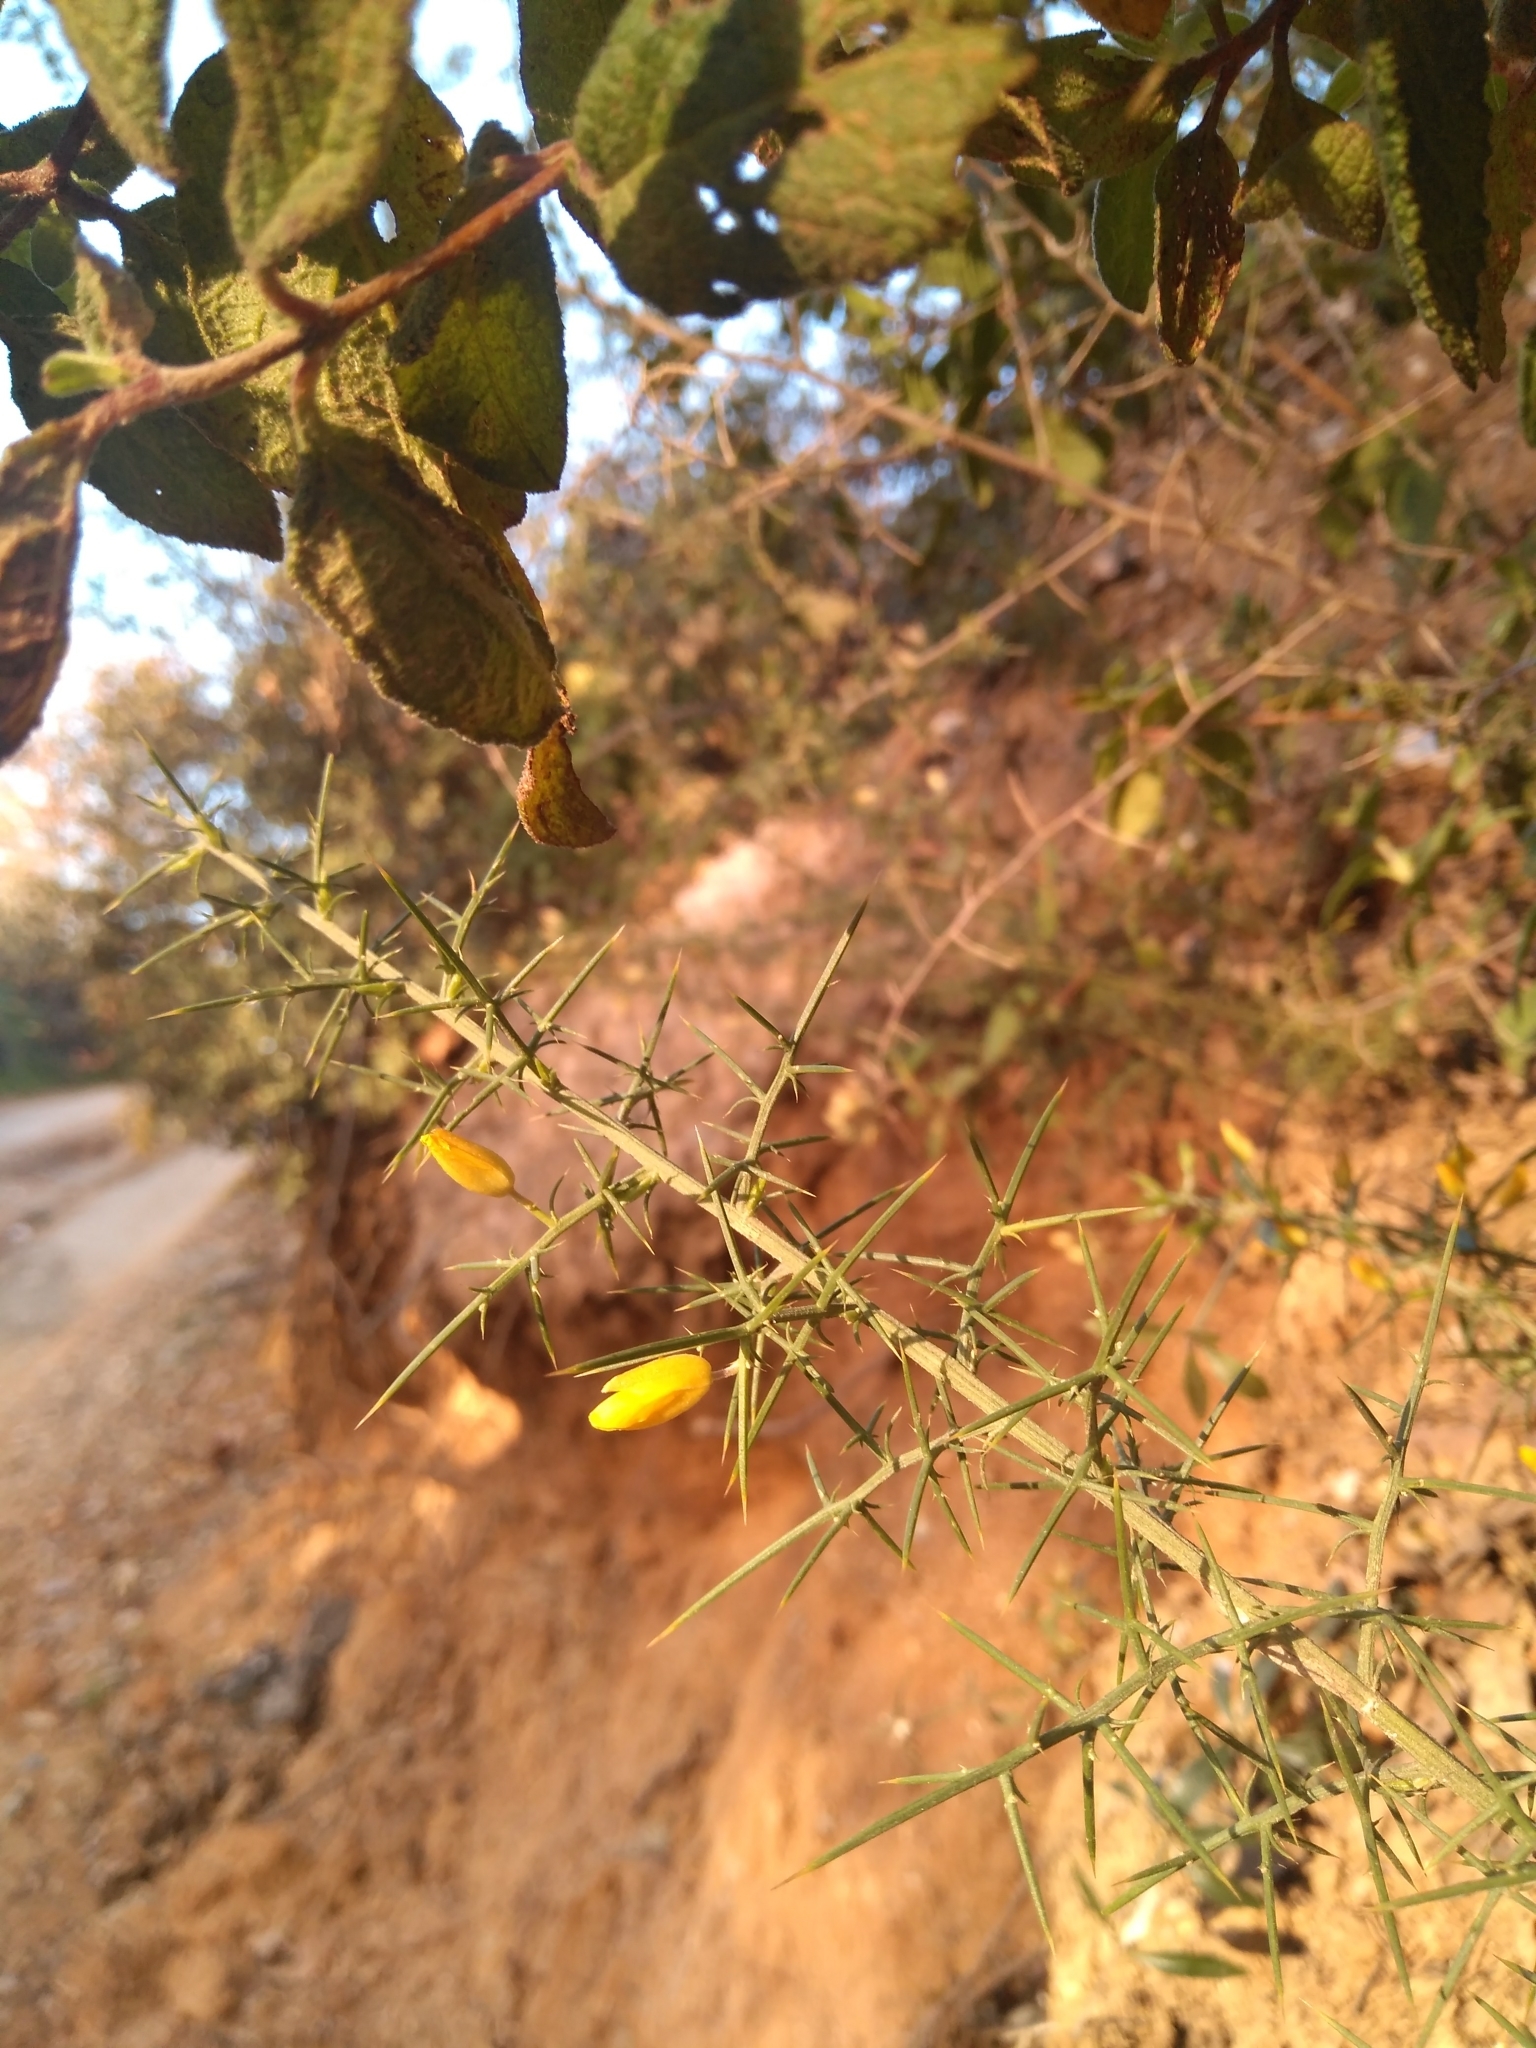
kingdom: Plantae
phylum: Tracheophyta
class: Magnoliopsida
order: Fabales
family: Fabaceae
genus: Ulex
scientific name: Ulex parviflorus
